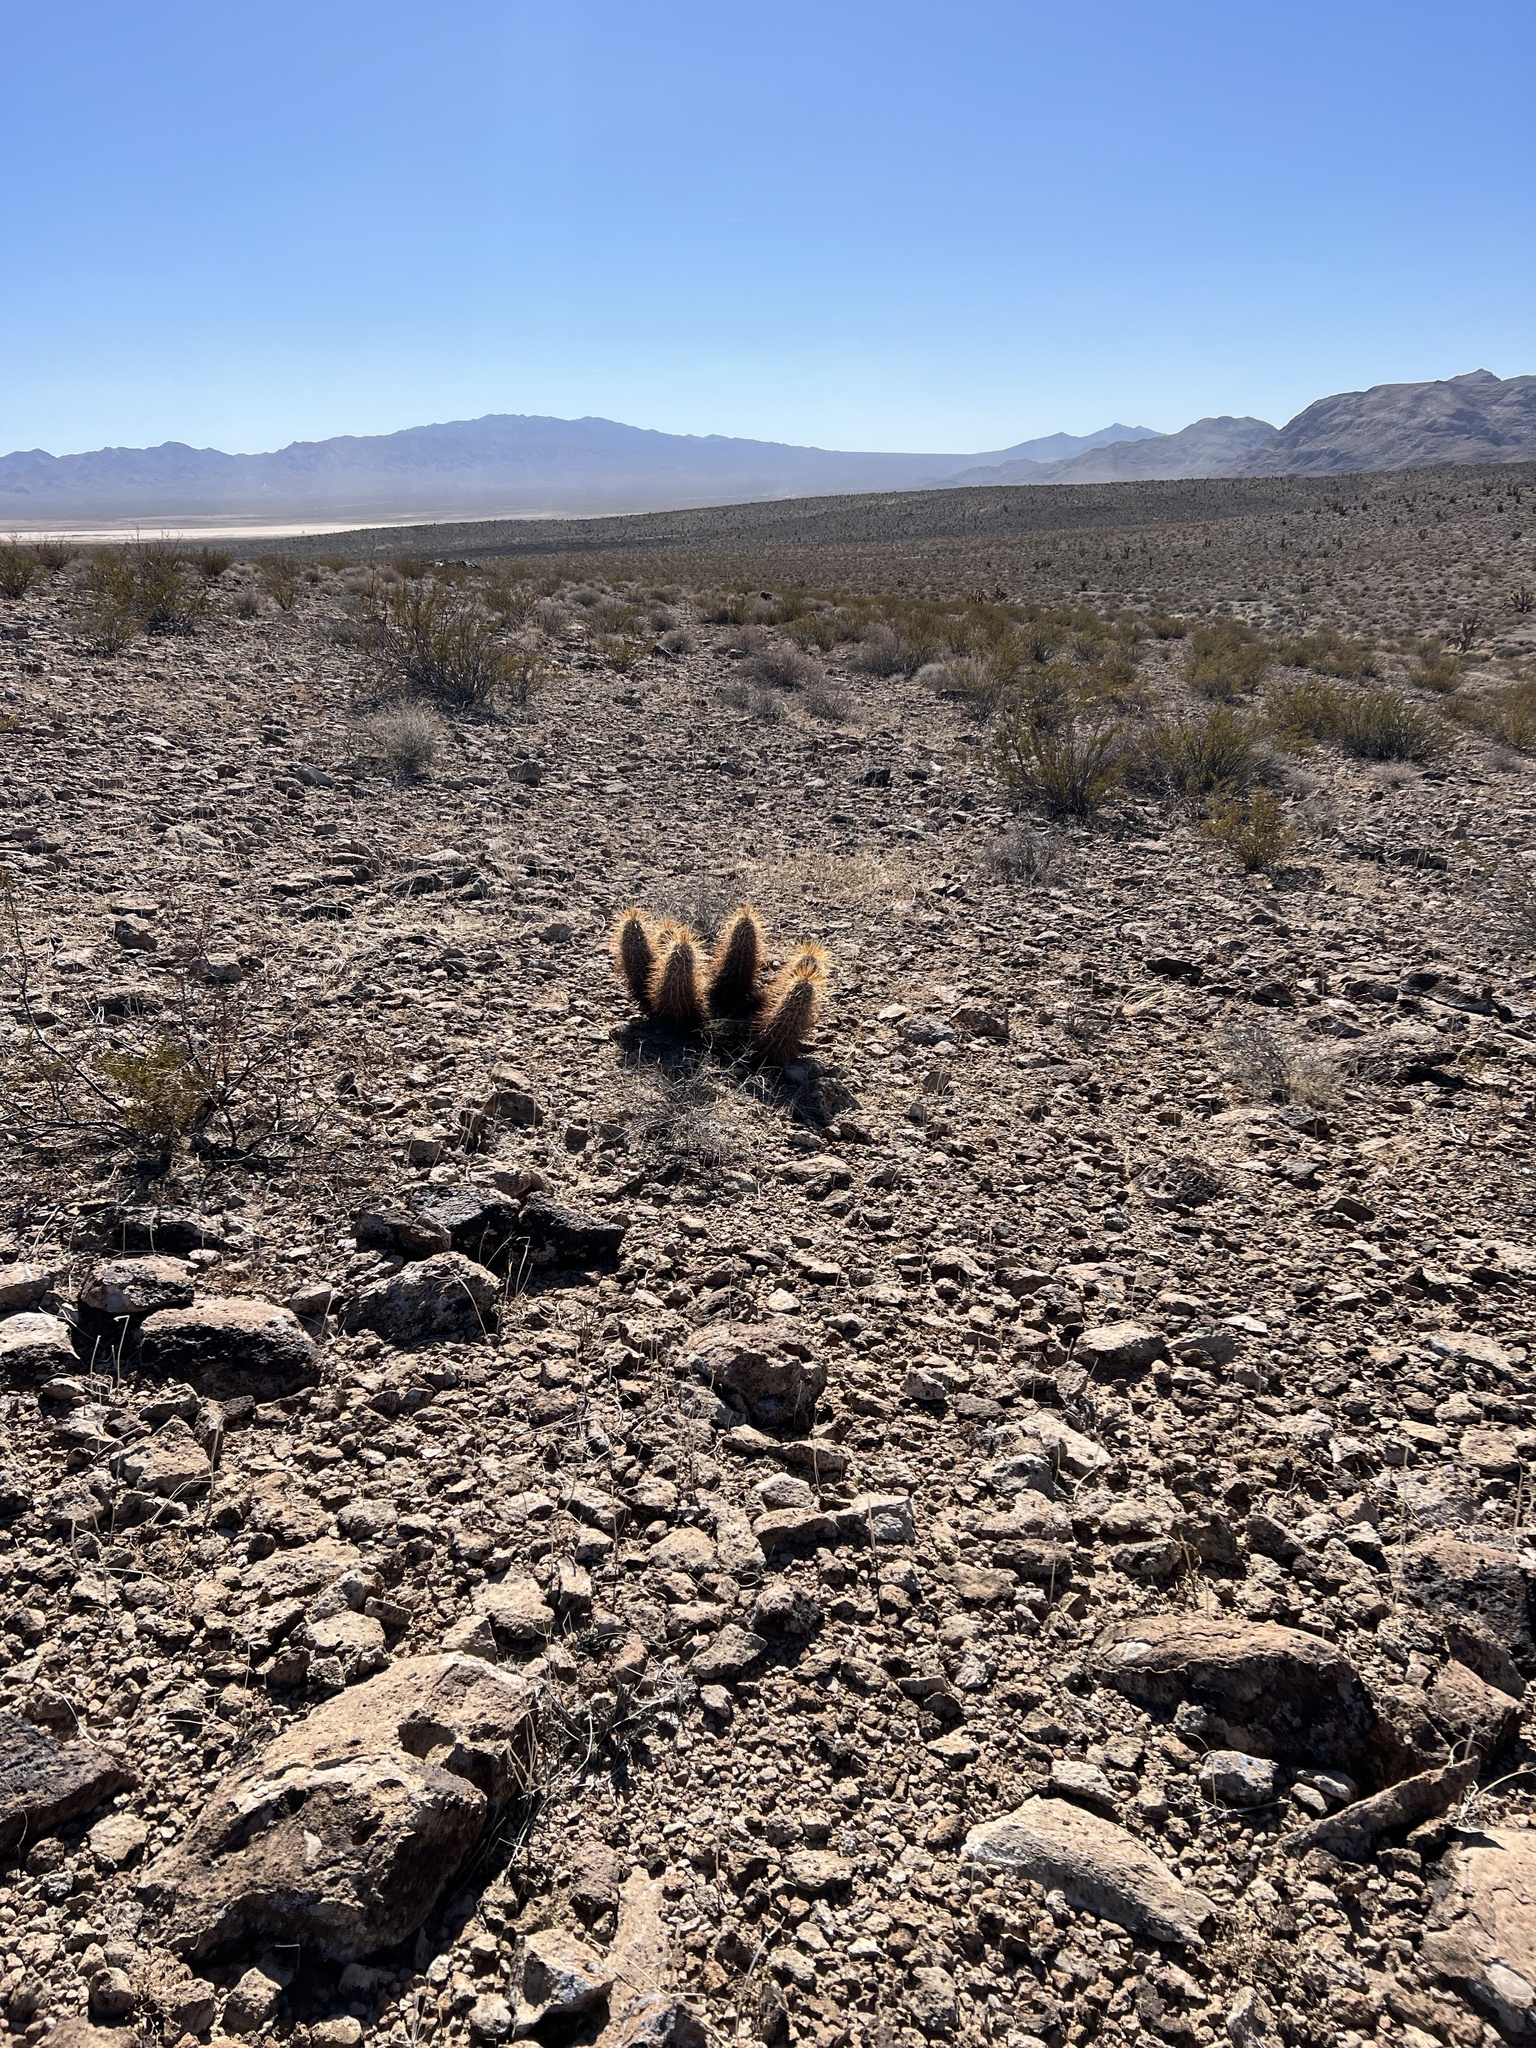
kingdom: Plantae
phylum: Tracheophyta
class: Magnoliopsida
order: Caryophyllales
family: Cactaceae
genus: Echinocereus
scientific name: Echinocereus engelmannii
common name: Engelmann's hedgehog cactus
